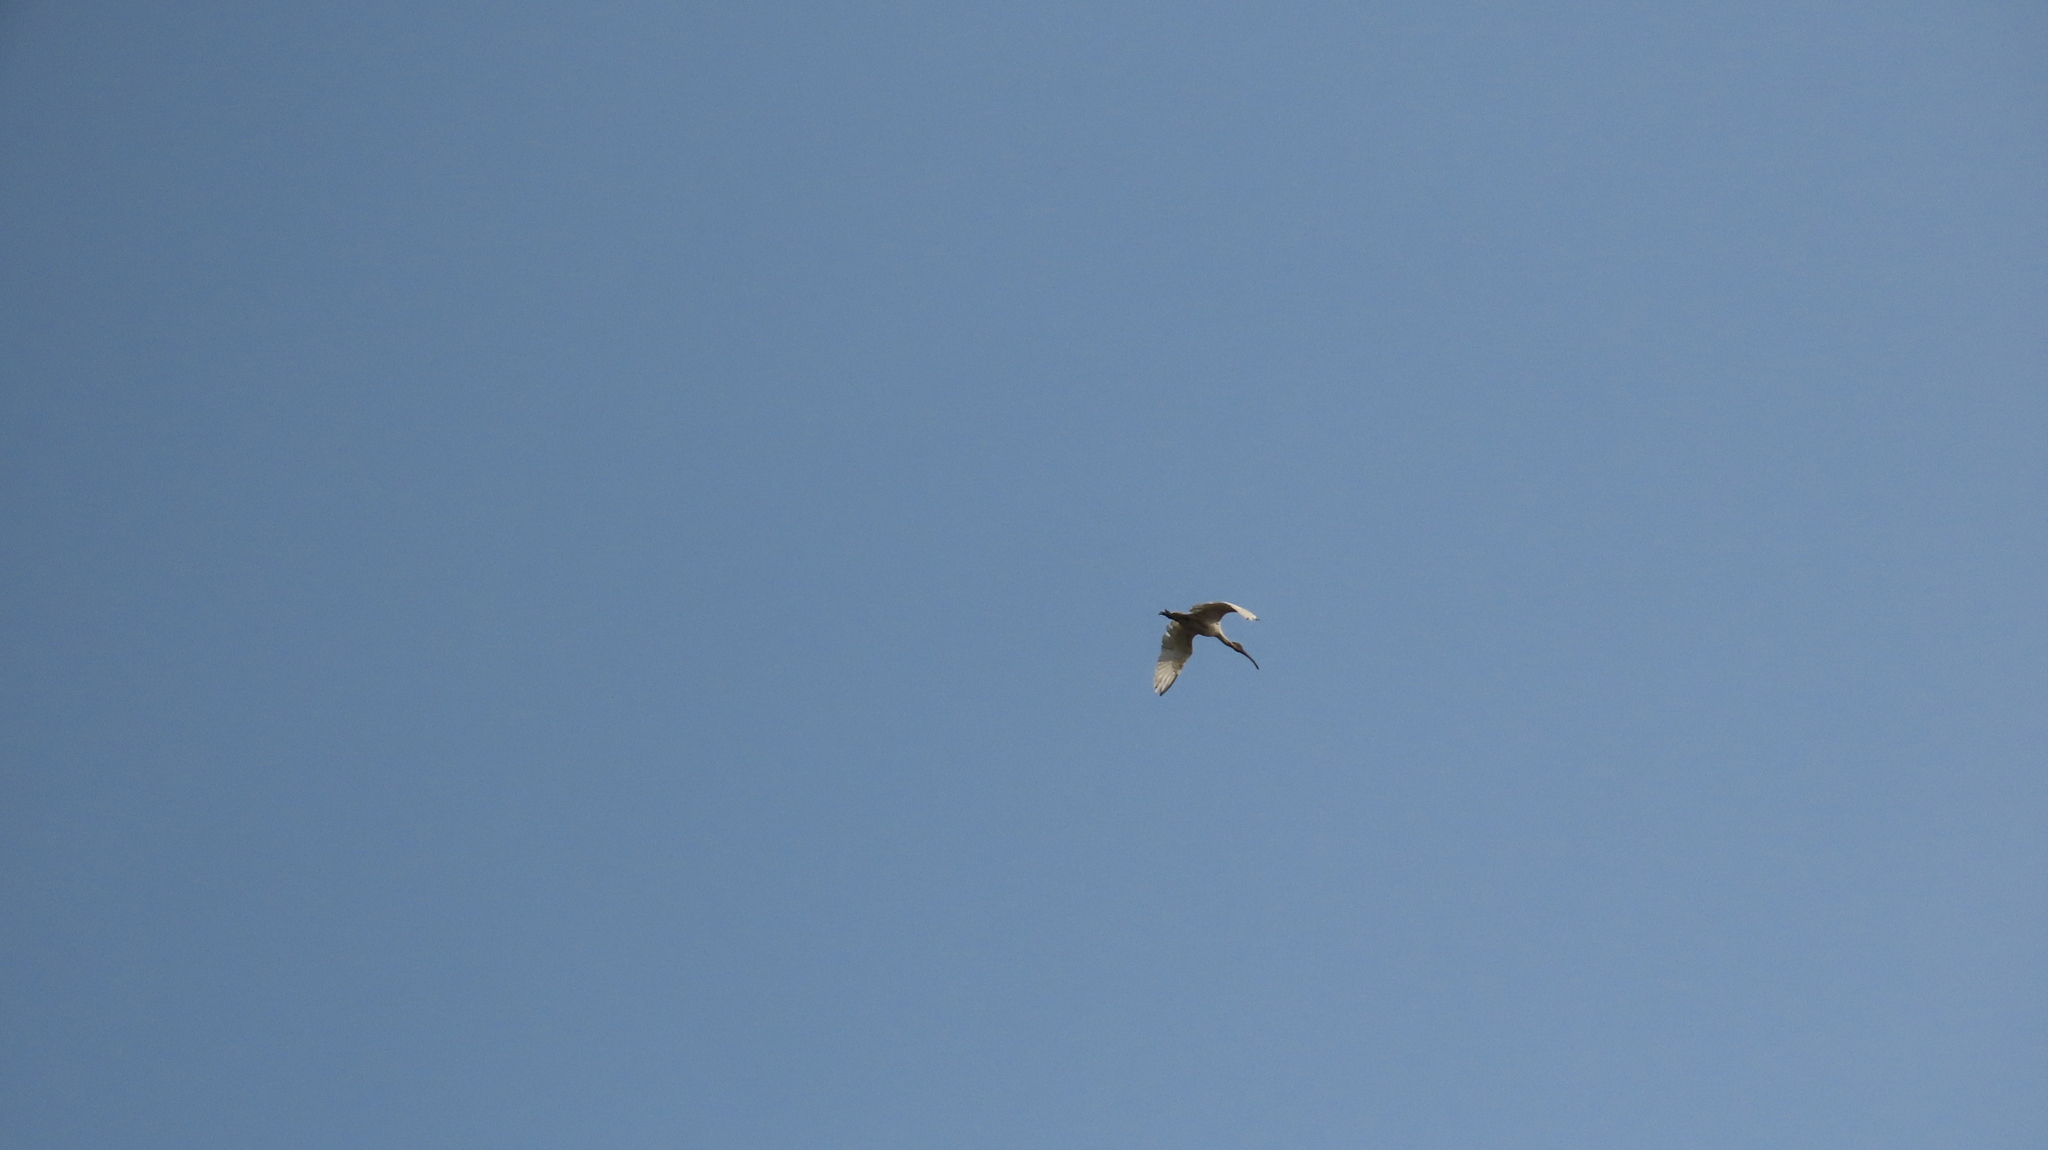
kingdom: Animalia
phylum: Chordata
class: Aves
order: Pelecaniformes
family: Threskiornithidae
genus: Threskiornis
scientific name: Threskiornis melanocephalus
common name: Black-headed ibis
